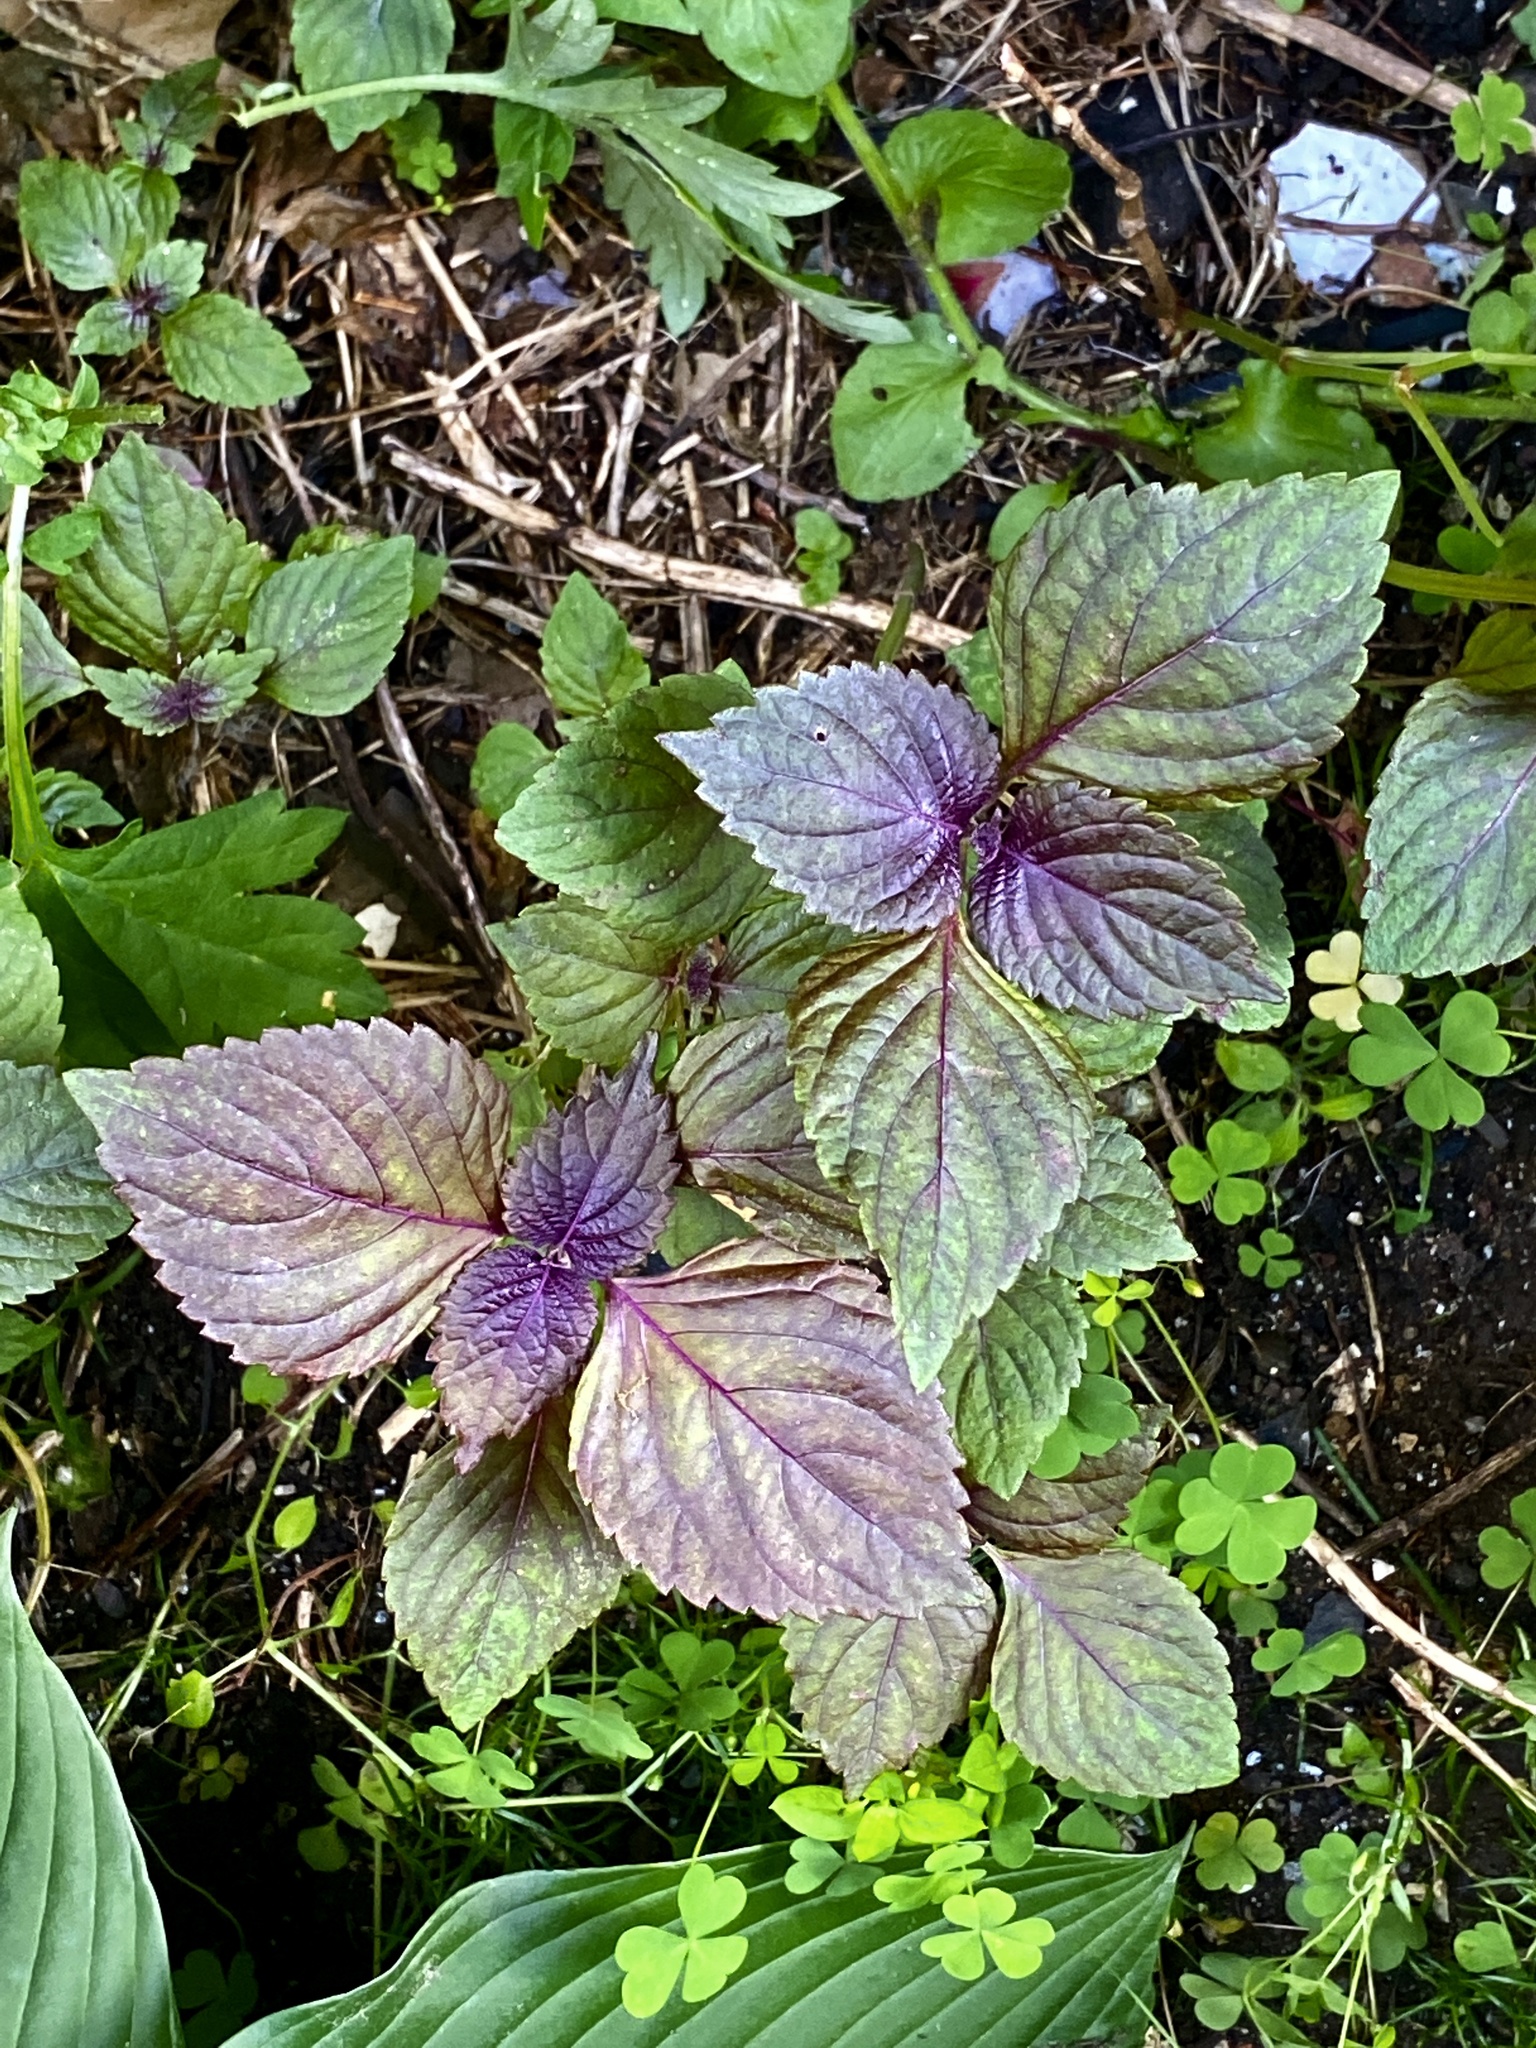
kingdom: Plantae
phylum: Tracheophyta
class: Magnoliopsida
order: Lamiales
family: Lamiaceae
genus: Perilla
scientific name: Perilla frutescens
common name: Perilla
